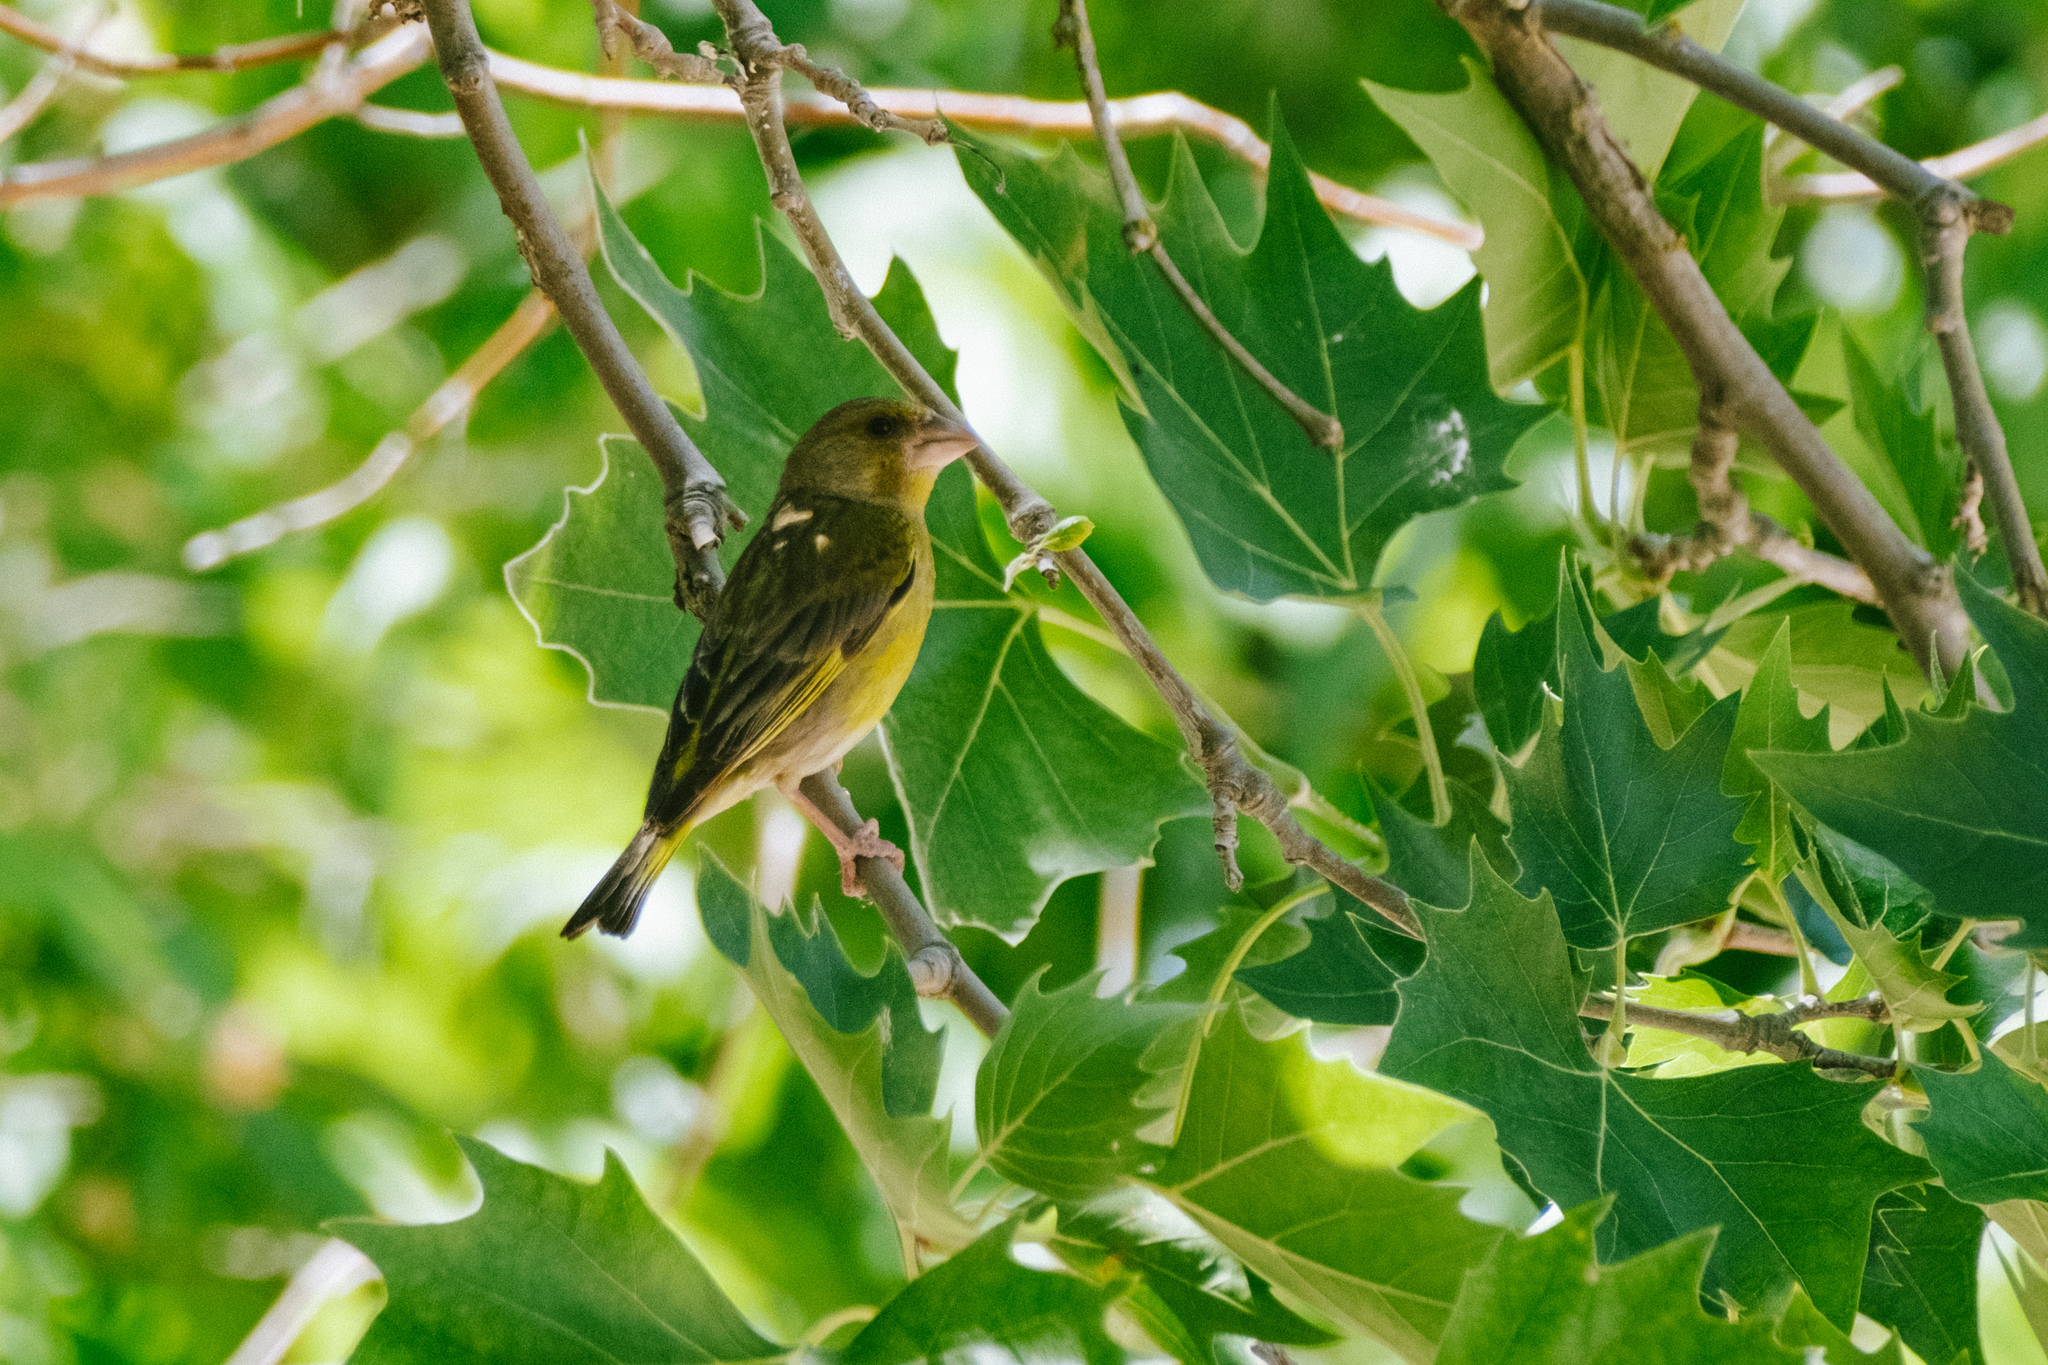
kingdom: Plantae
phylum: Tracheophyta
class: Liliopsida
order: Poales
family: Poaceae
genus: Chloris
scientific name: Chloris chloris
